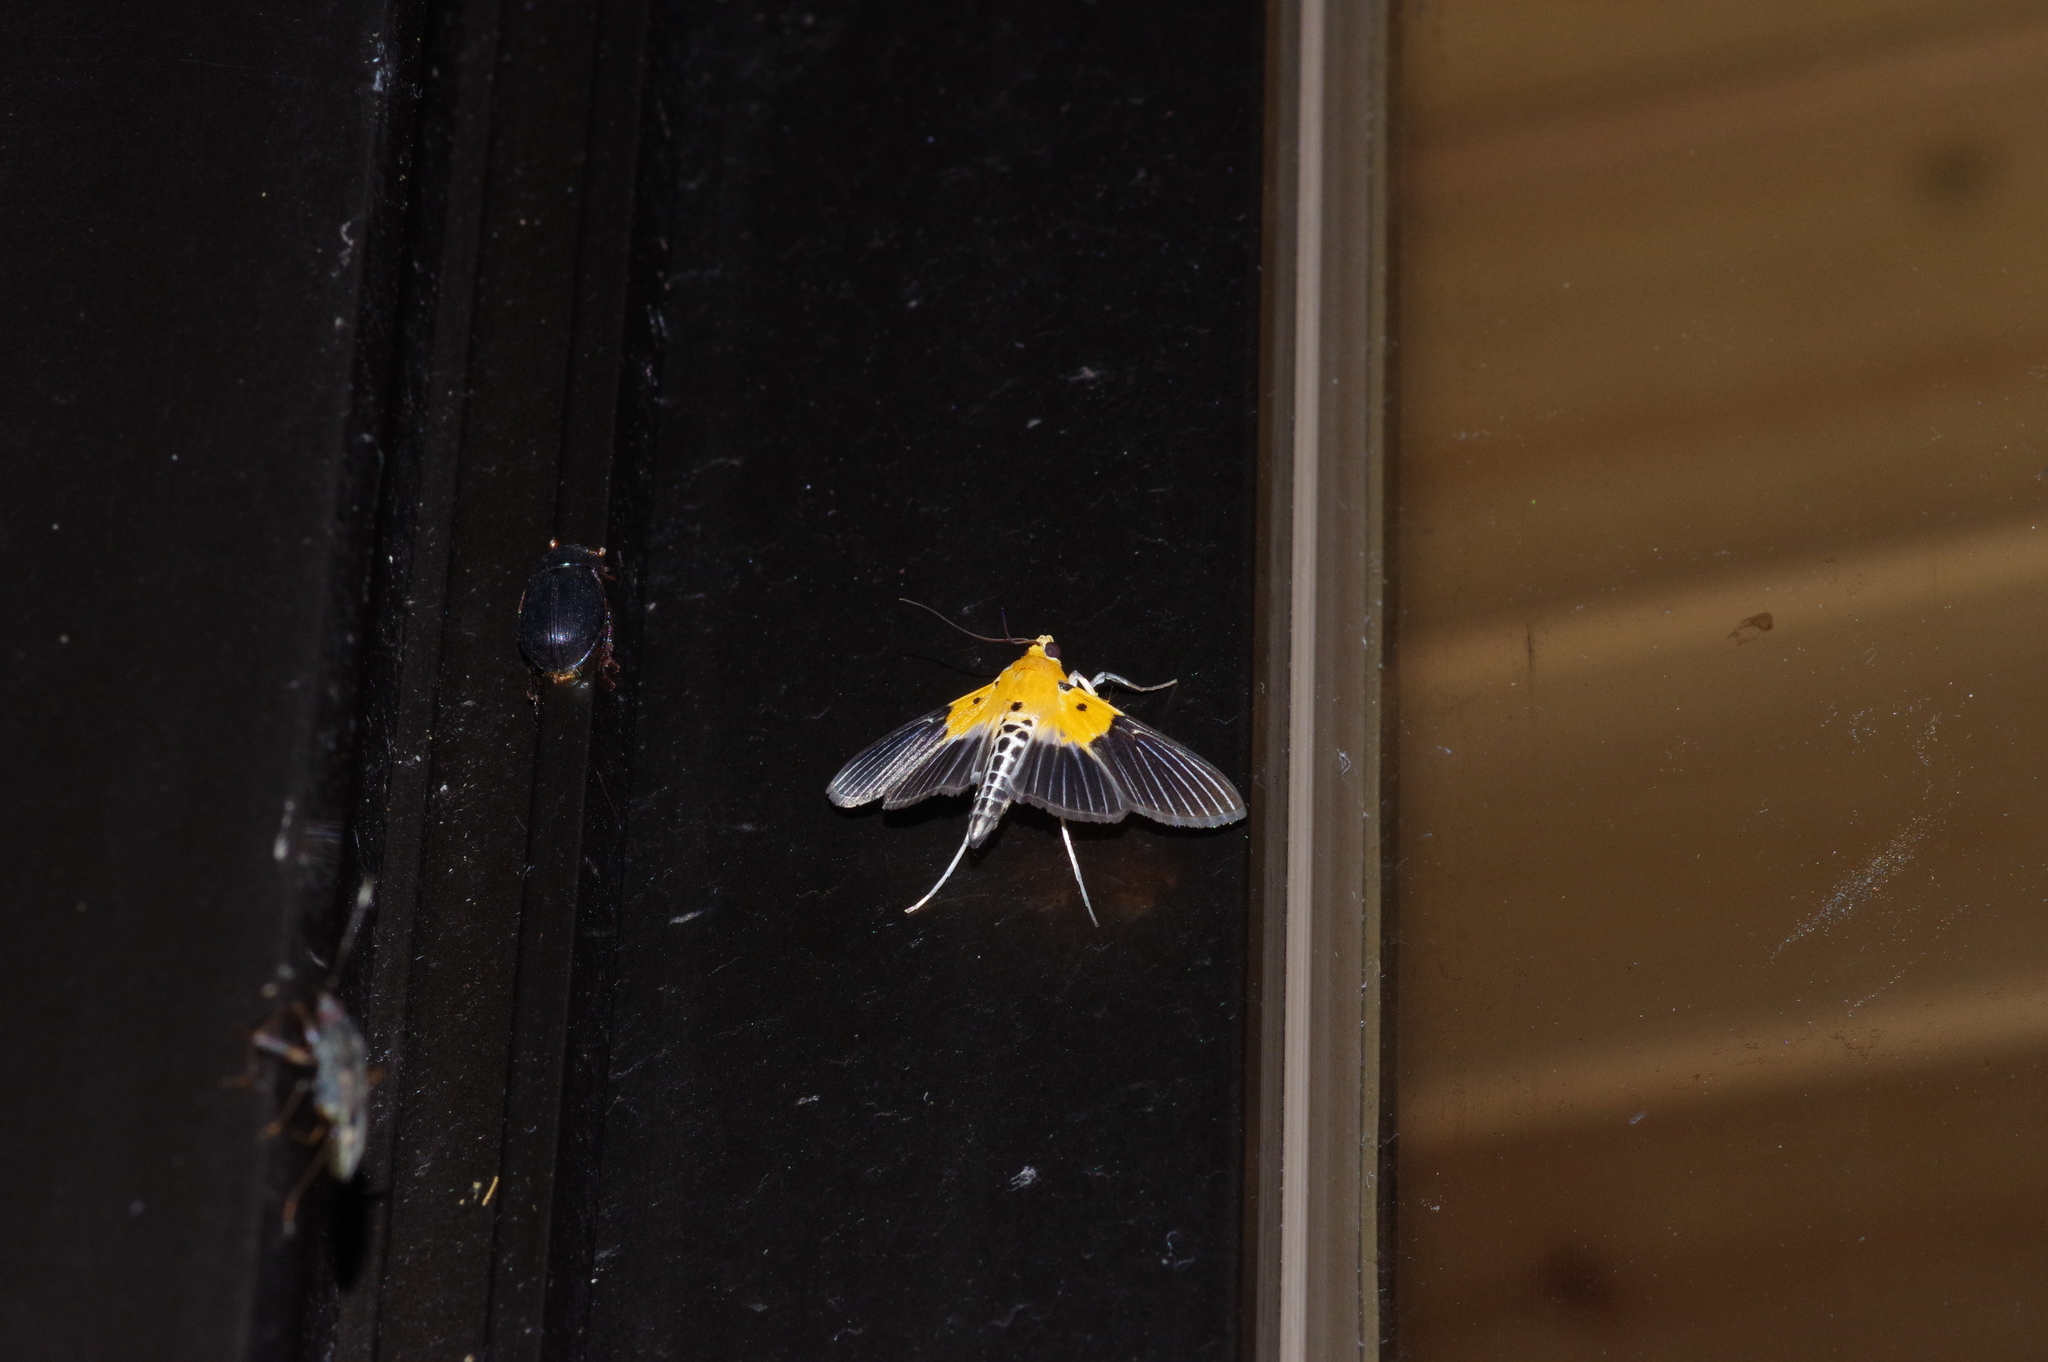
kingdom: Animalia
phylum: Arthropoda
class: Insecta
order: Lepidoptera
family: Crambidae
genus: Nevrina
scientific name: Nevrina procopia
